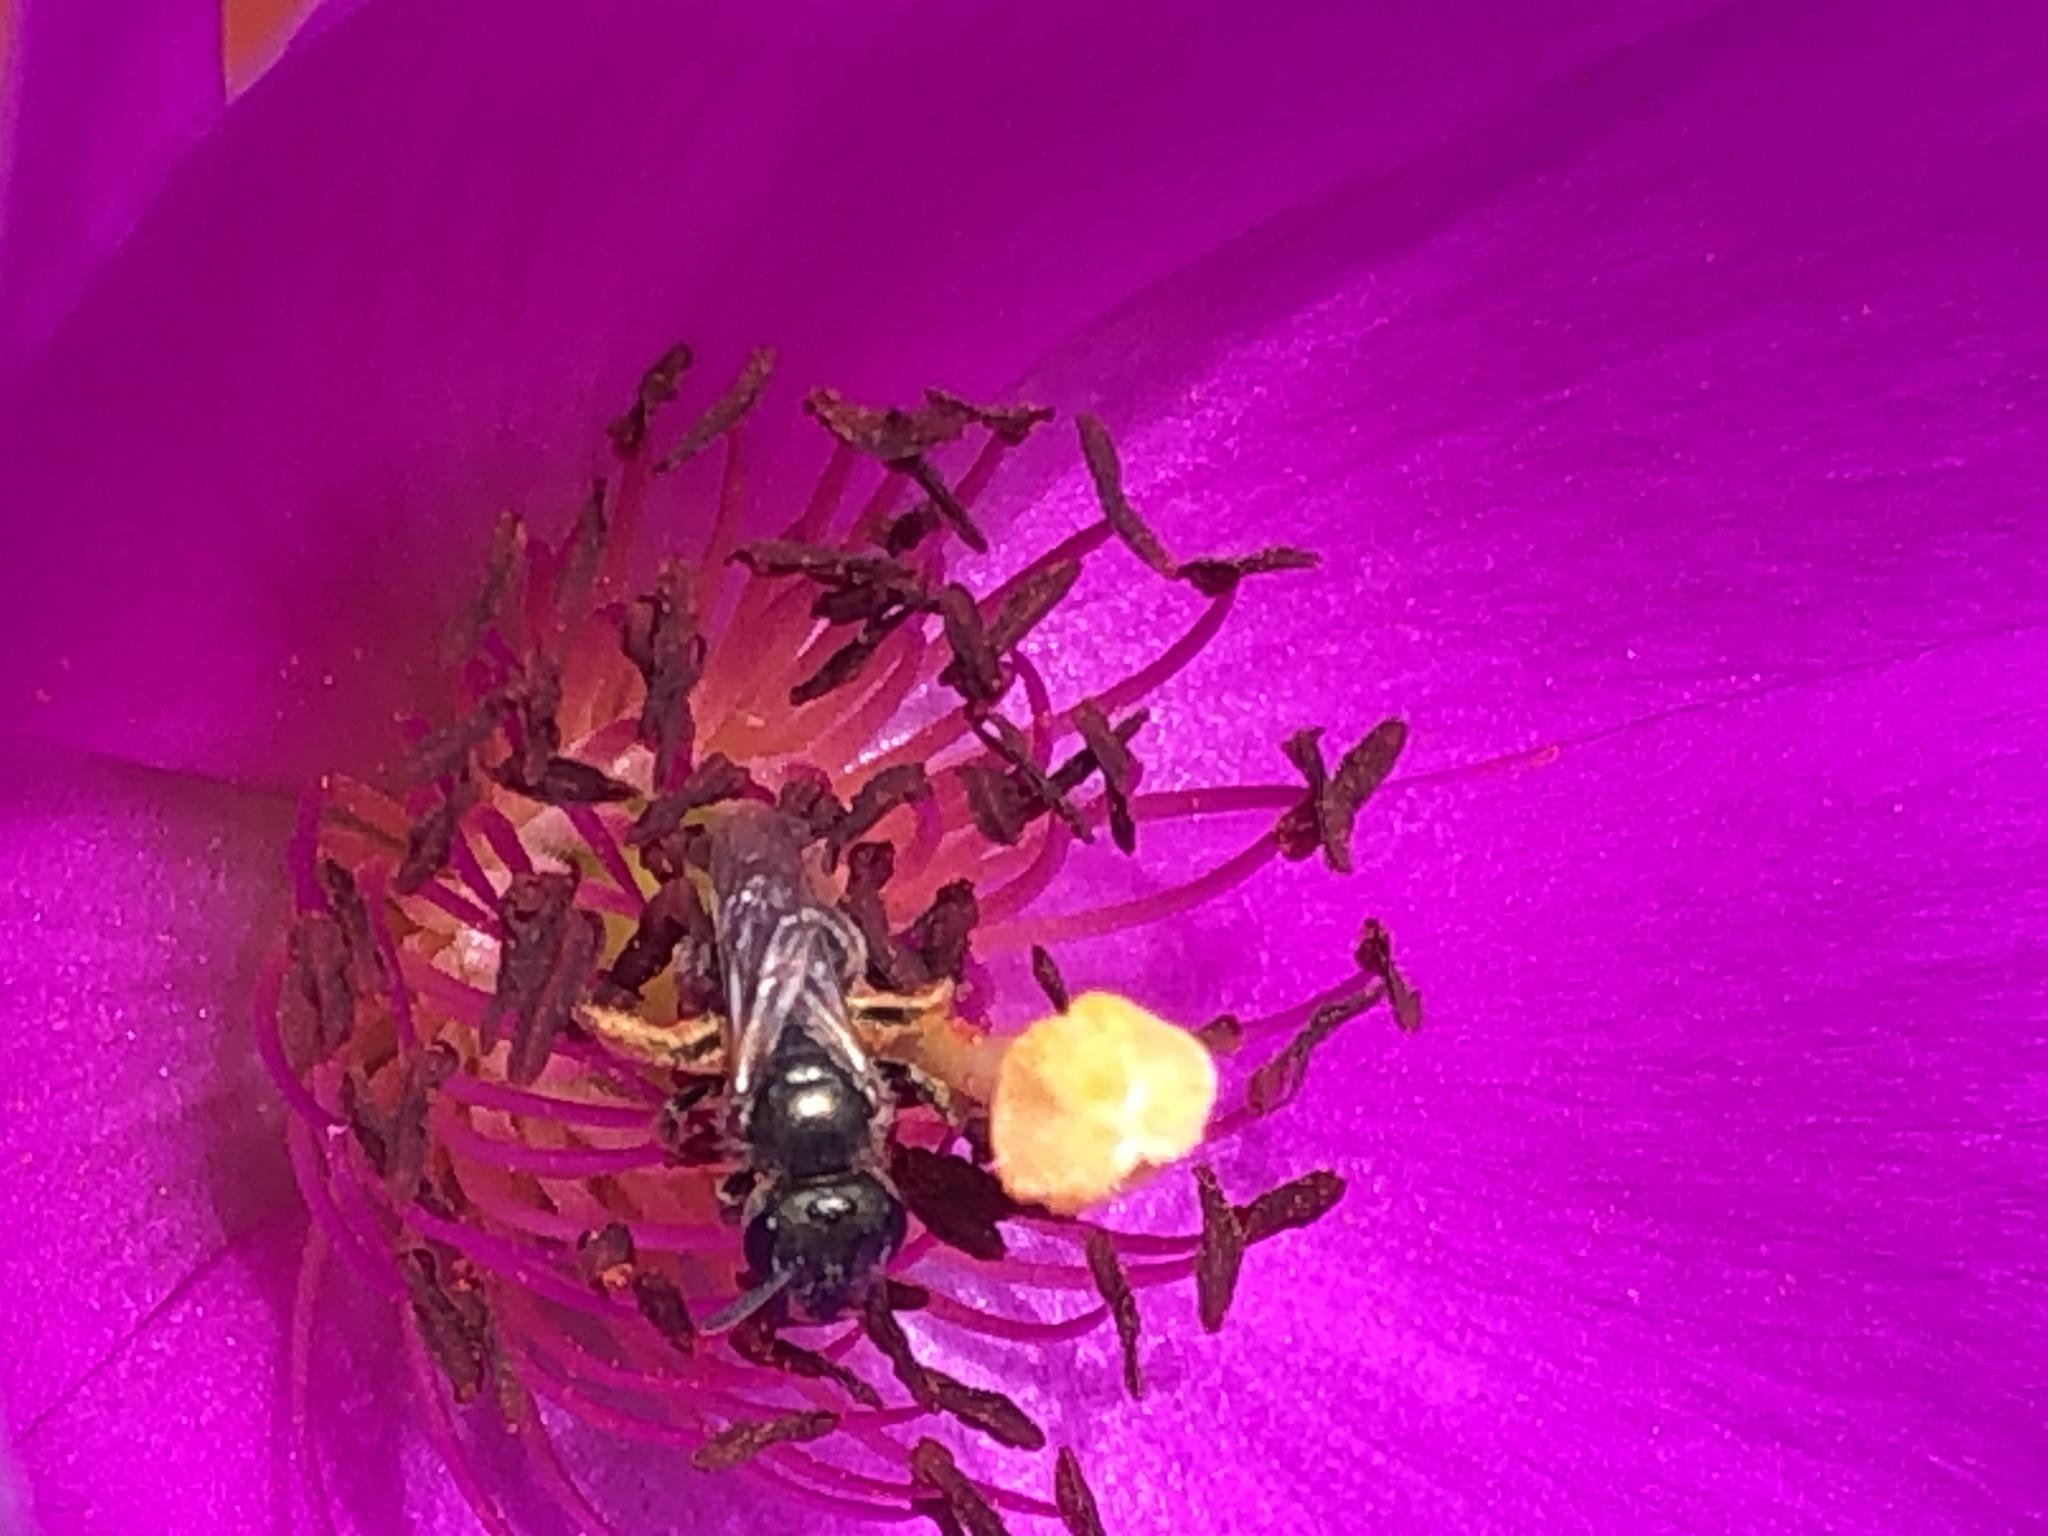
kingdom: Animalia
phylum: Arthropoda
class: Insecta
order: Hymenoptera
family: Halictidae
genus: Halictus
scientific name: Halictus tripartitus
